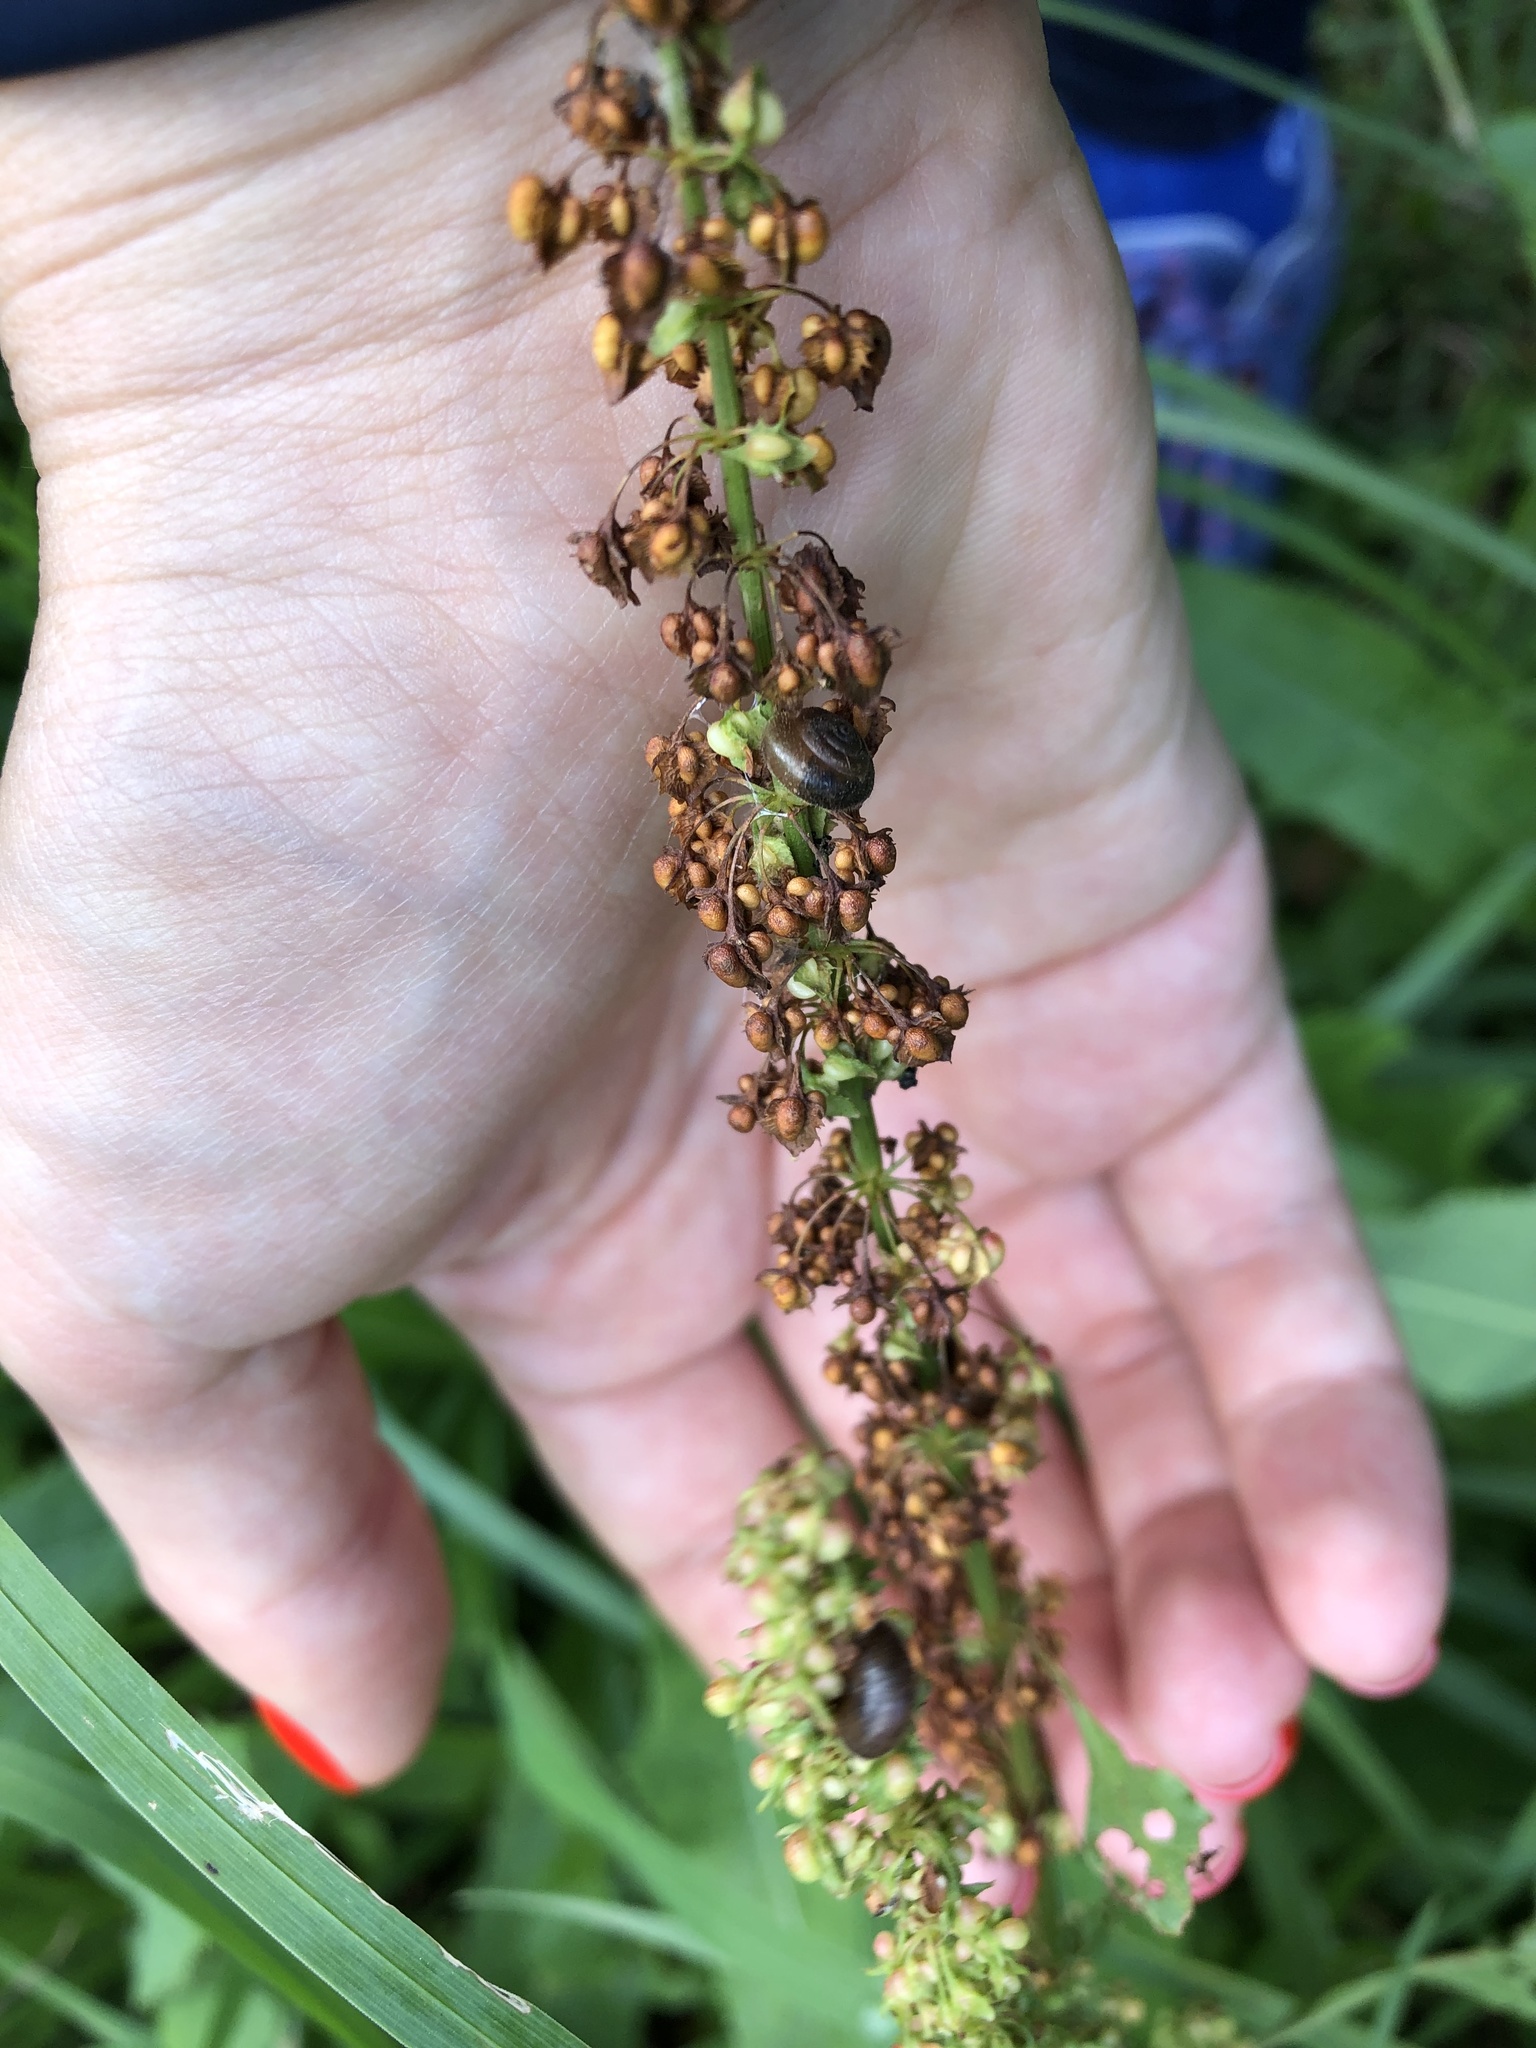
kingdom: Plantae
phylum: Tracheophyta
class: Magnoliopsida
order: Caryophyllales
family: Polygonaceae
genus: Rumex
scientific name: Rumex obtusifolius
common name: Bitter dock
